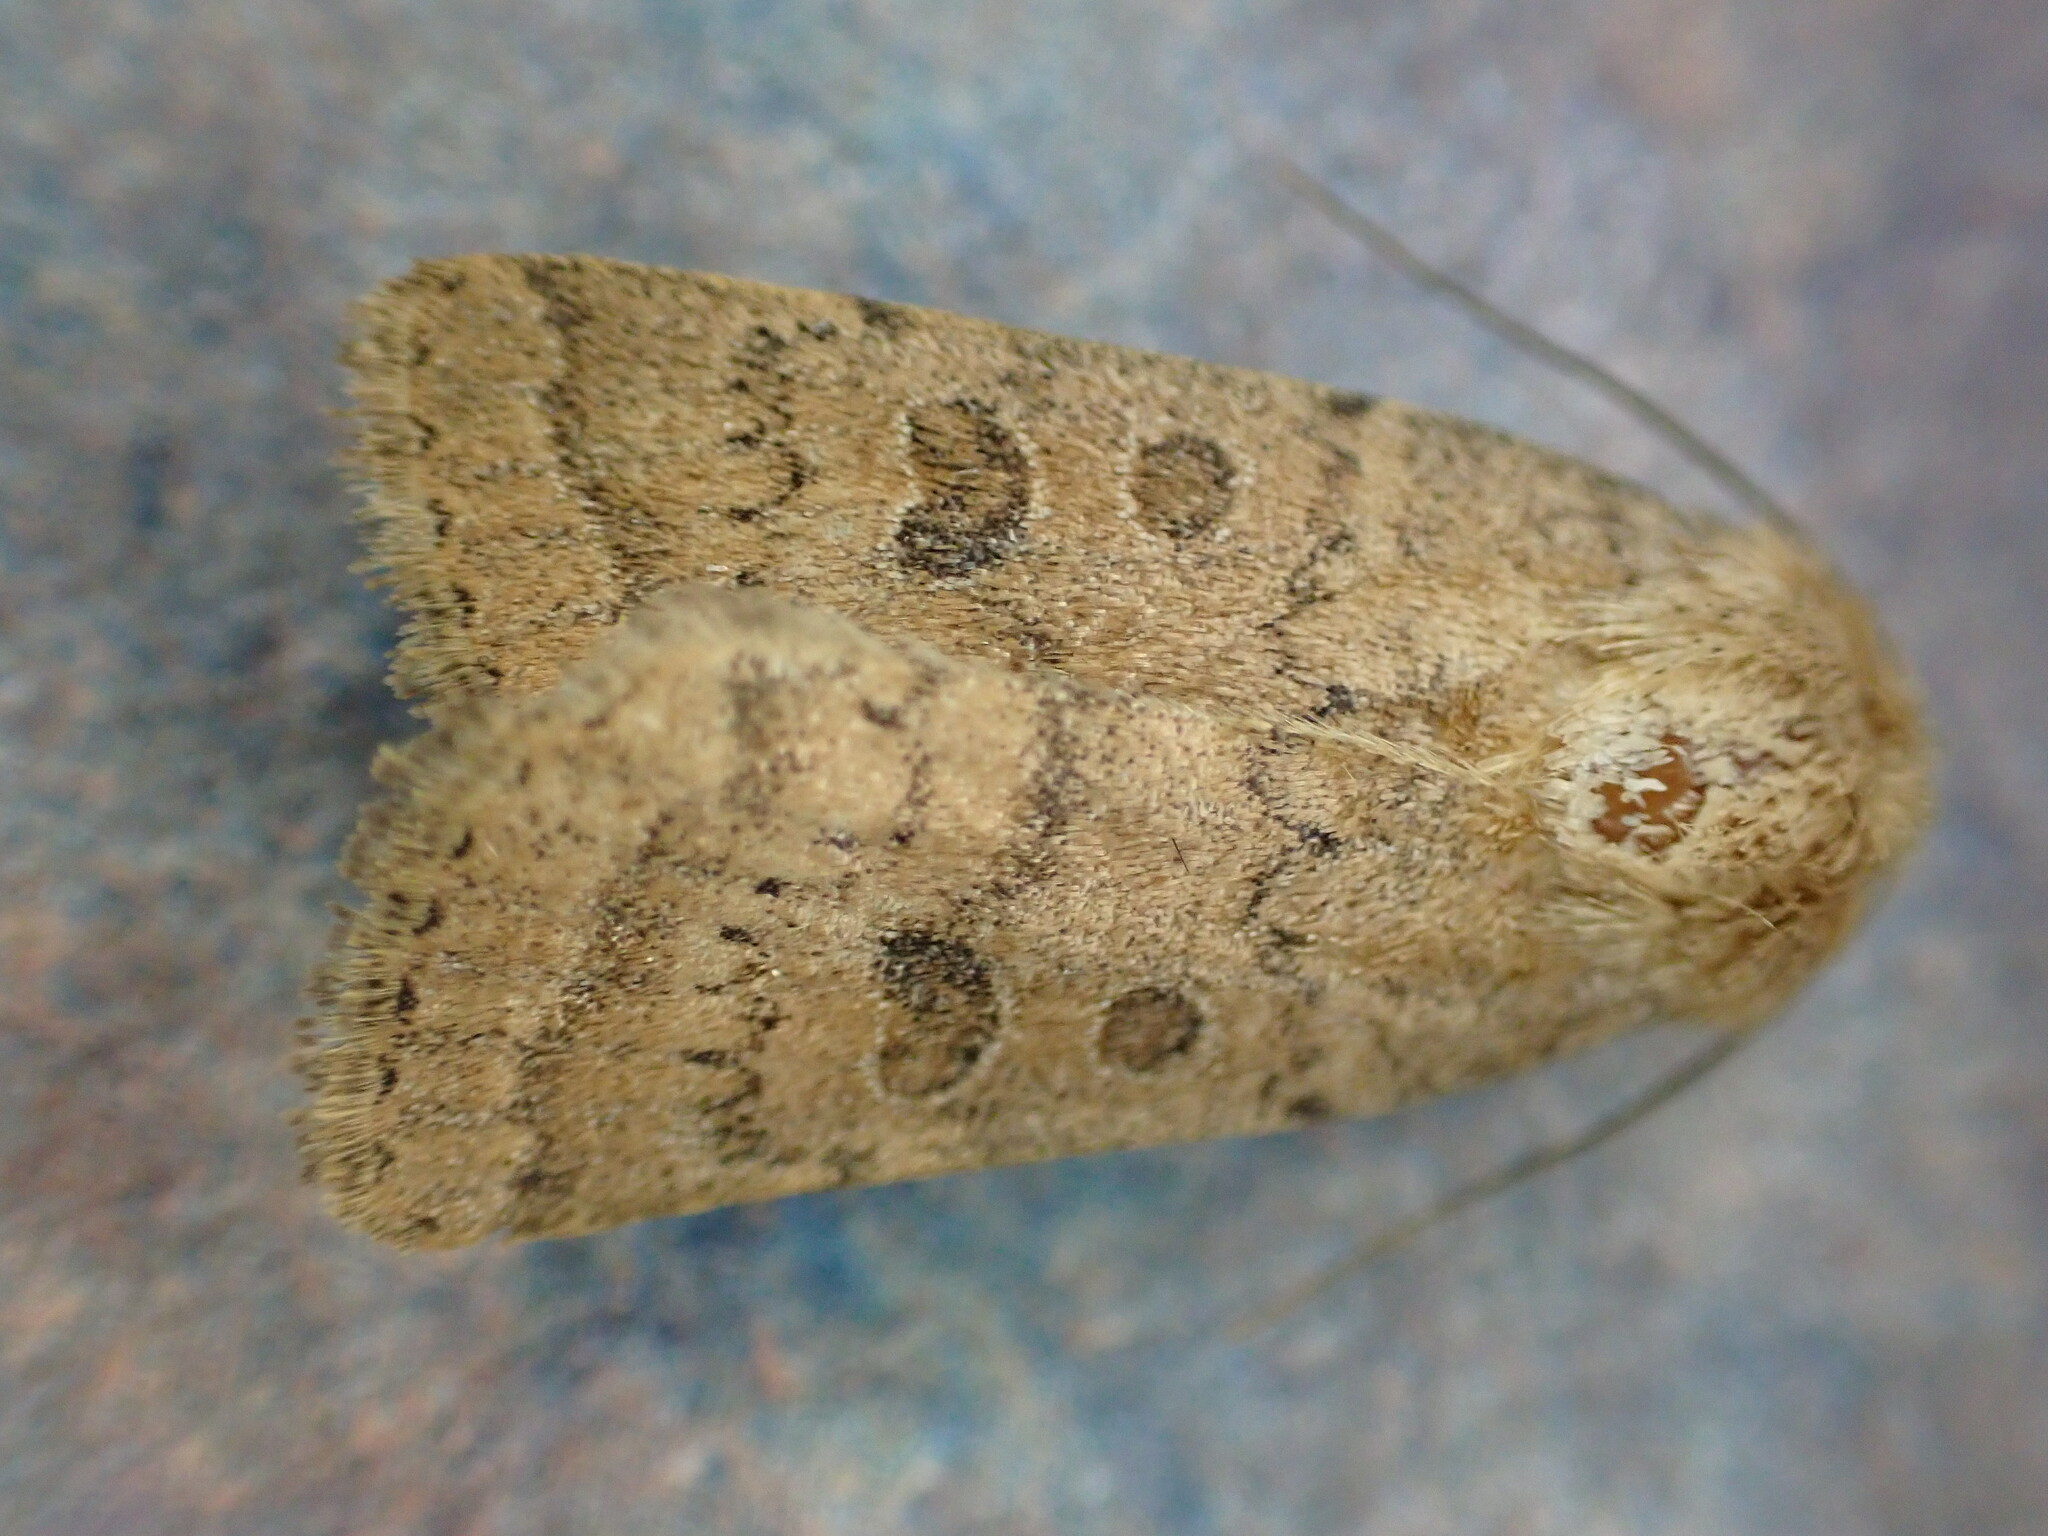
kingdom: Animalia
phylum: Arthropoda
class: Insecta
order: Lepidoptera
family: Noctuidae
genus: Hoplodrina
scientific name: Hoplodrina octogenaria
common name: Uncertain
